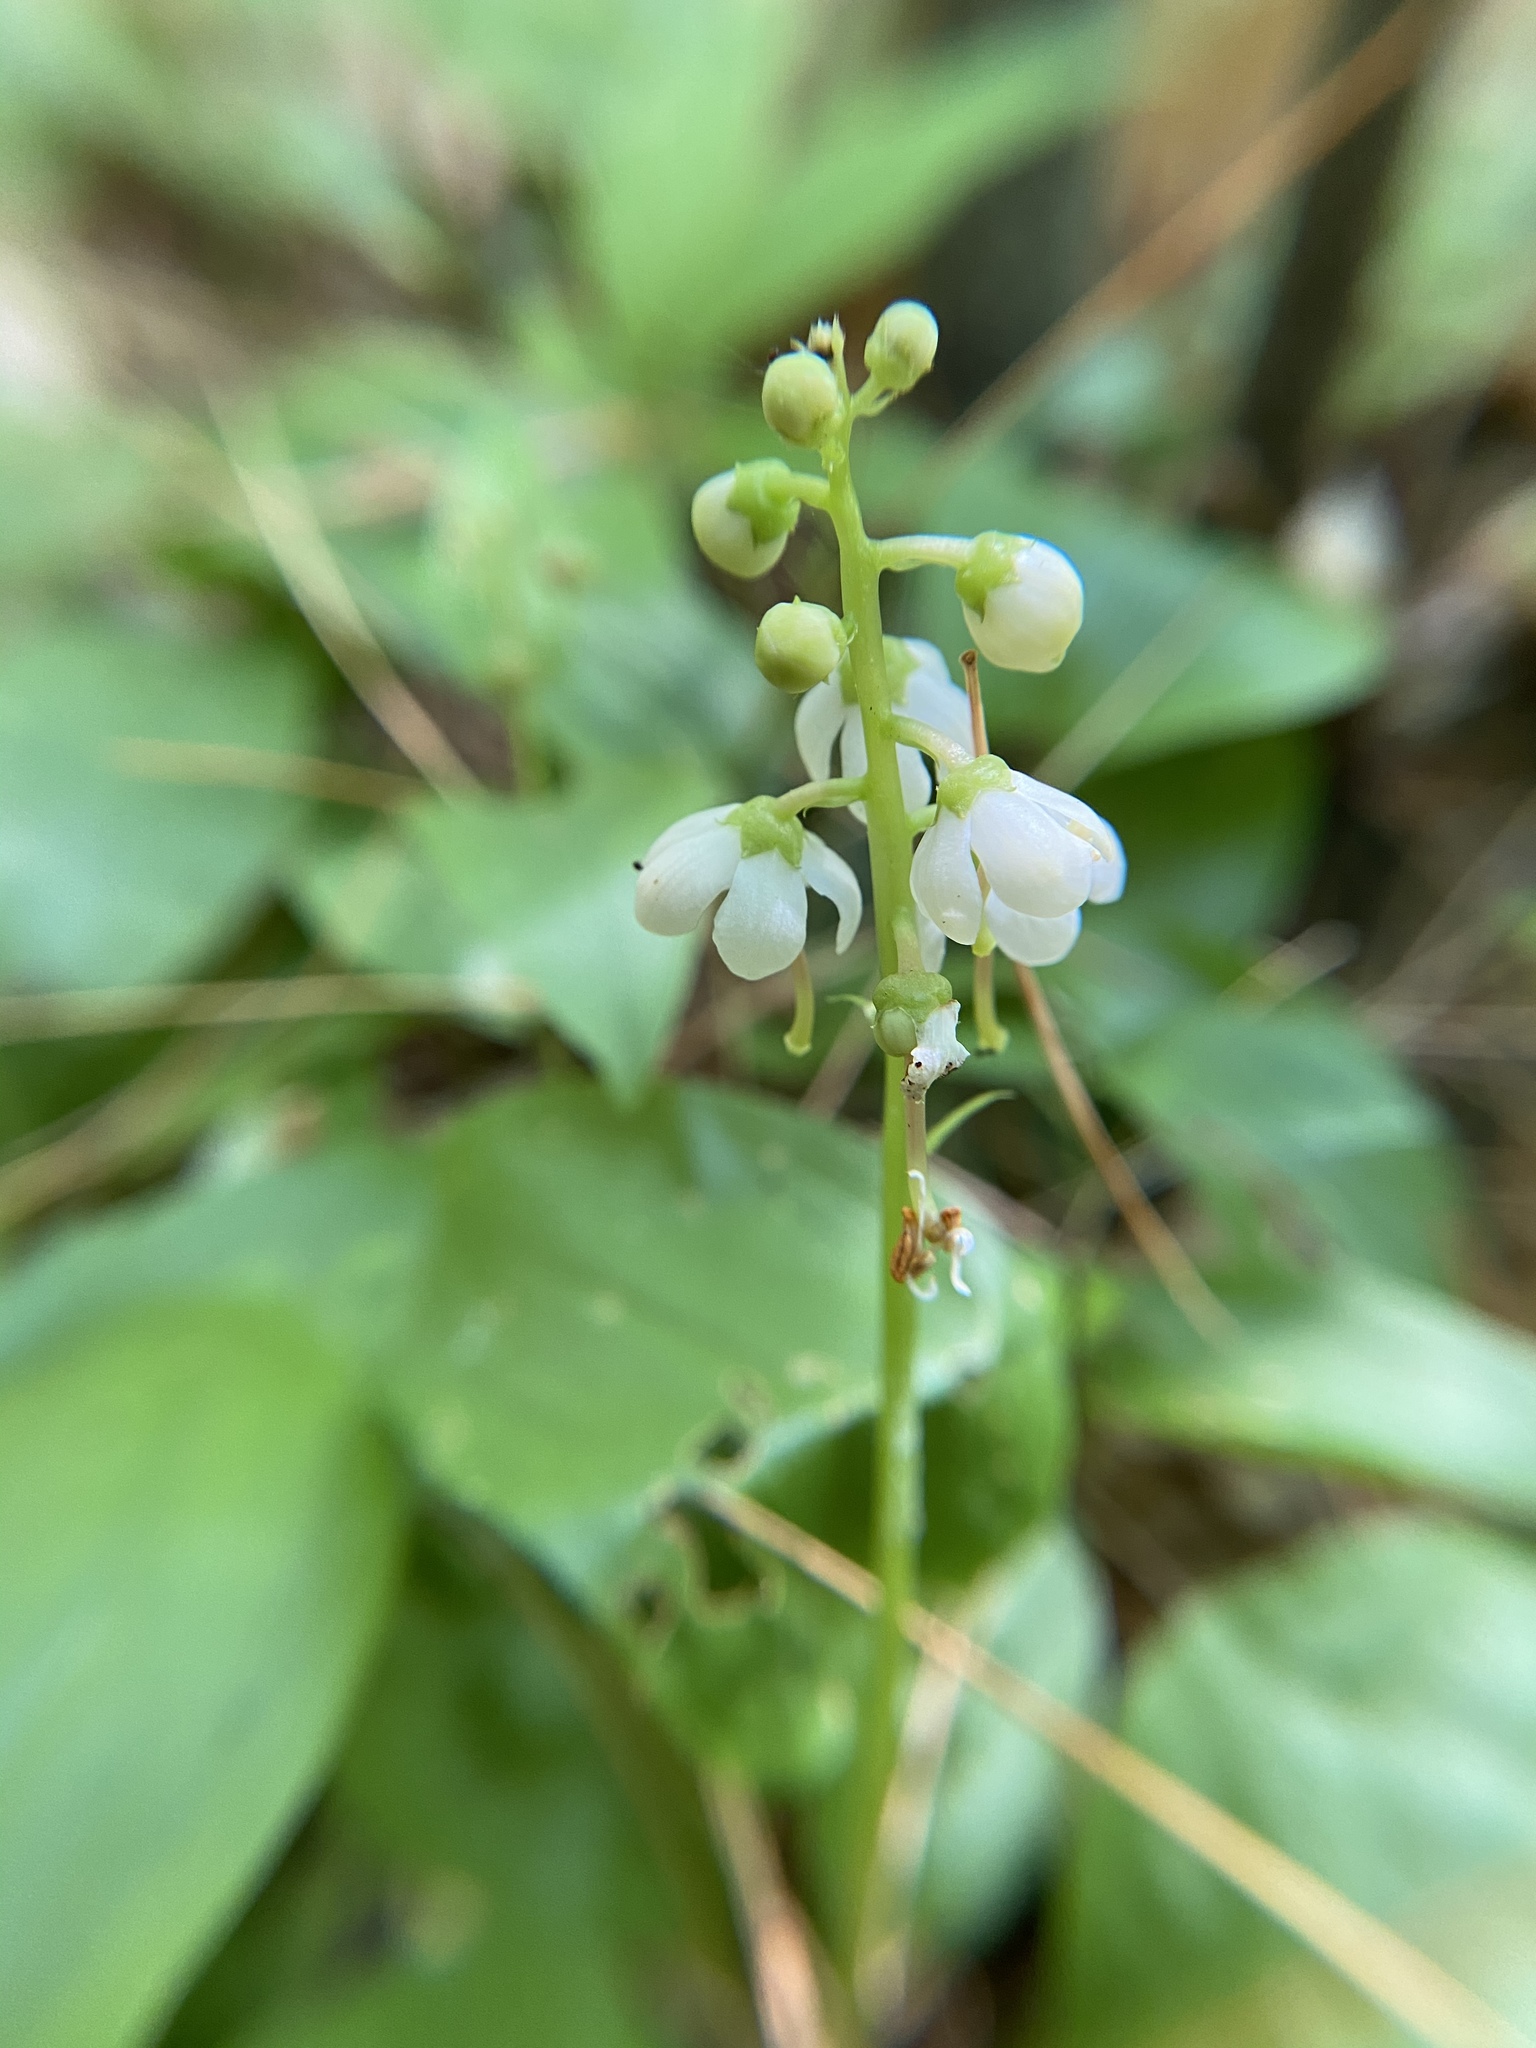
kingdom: Plantae
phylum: Tracheophyta
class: Magnoliopsida
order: Ericales
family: Ericaceae
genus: Pyrola
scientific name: Pyrola elliptica
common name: Shinleaf
